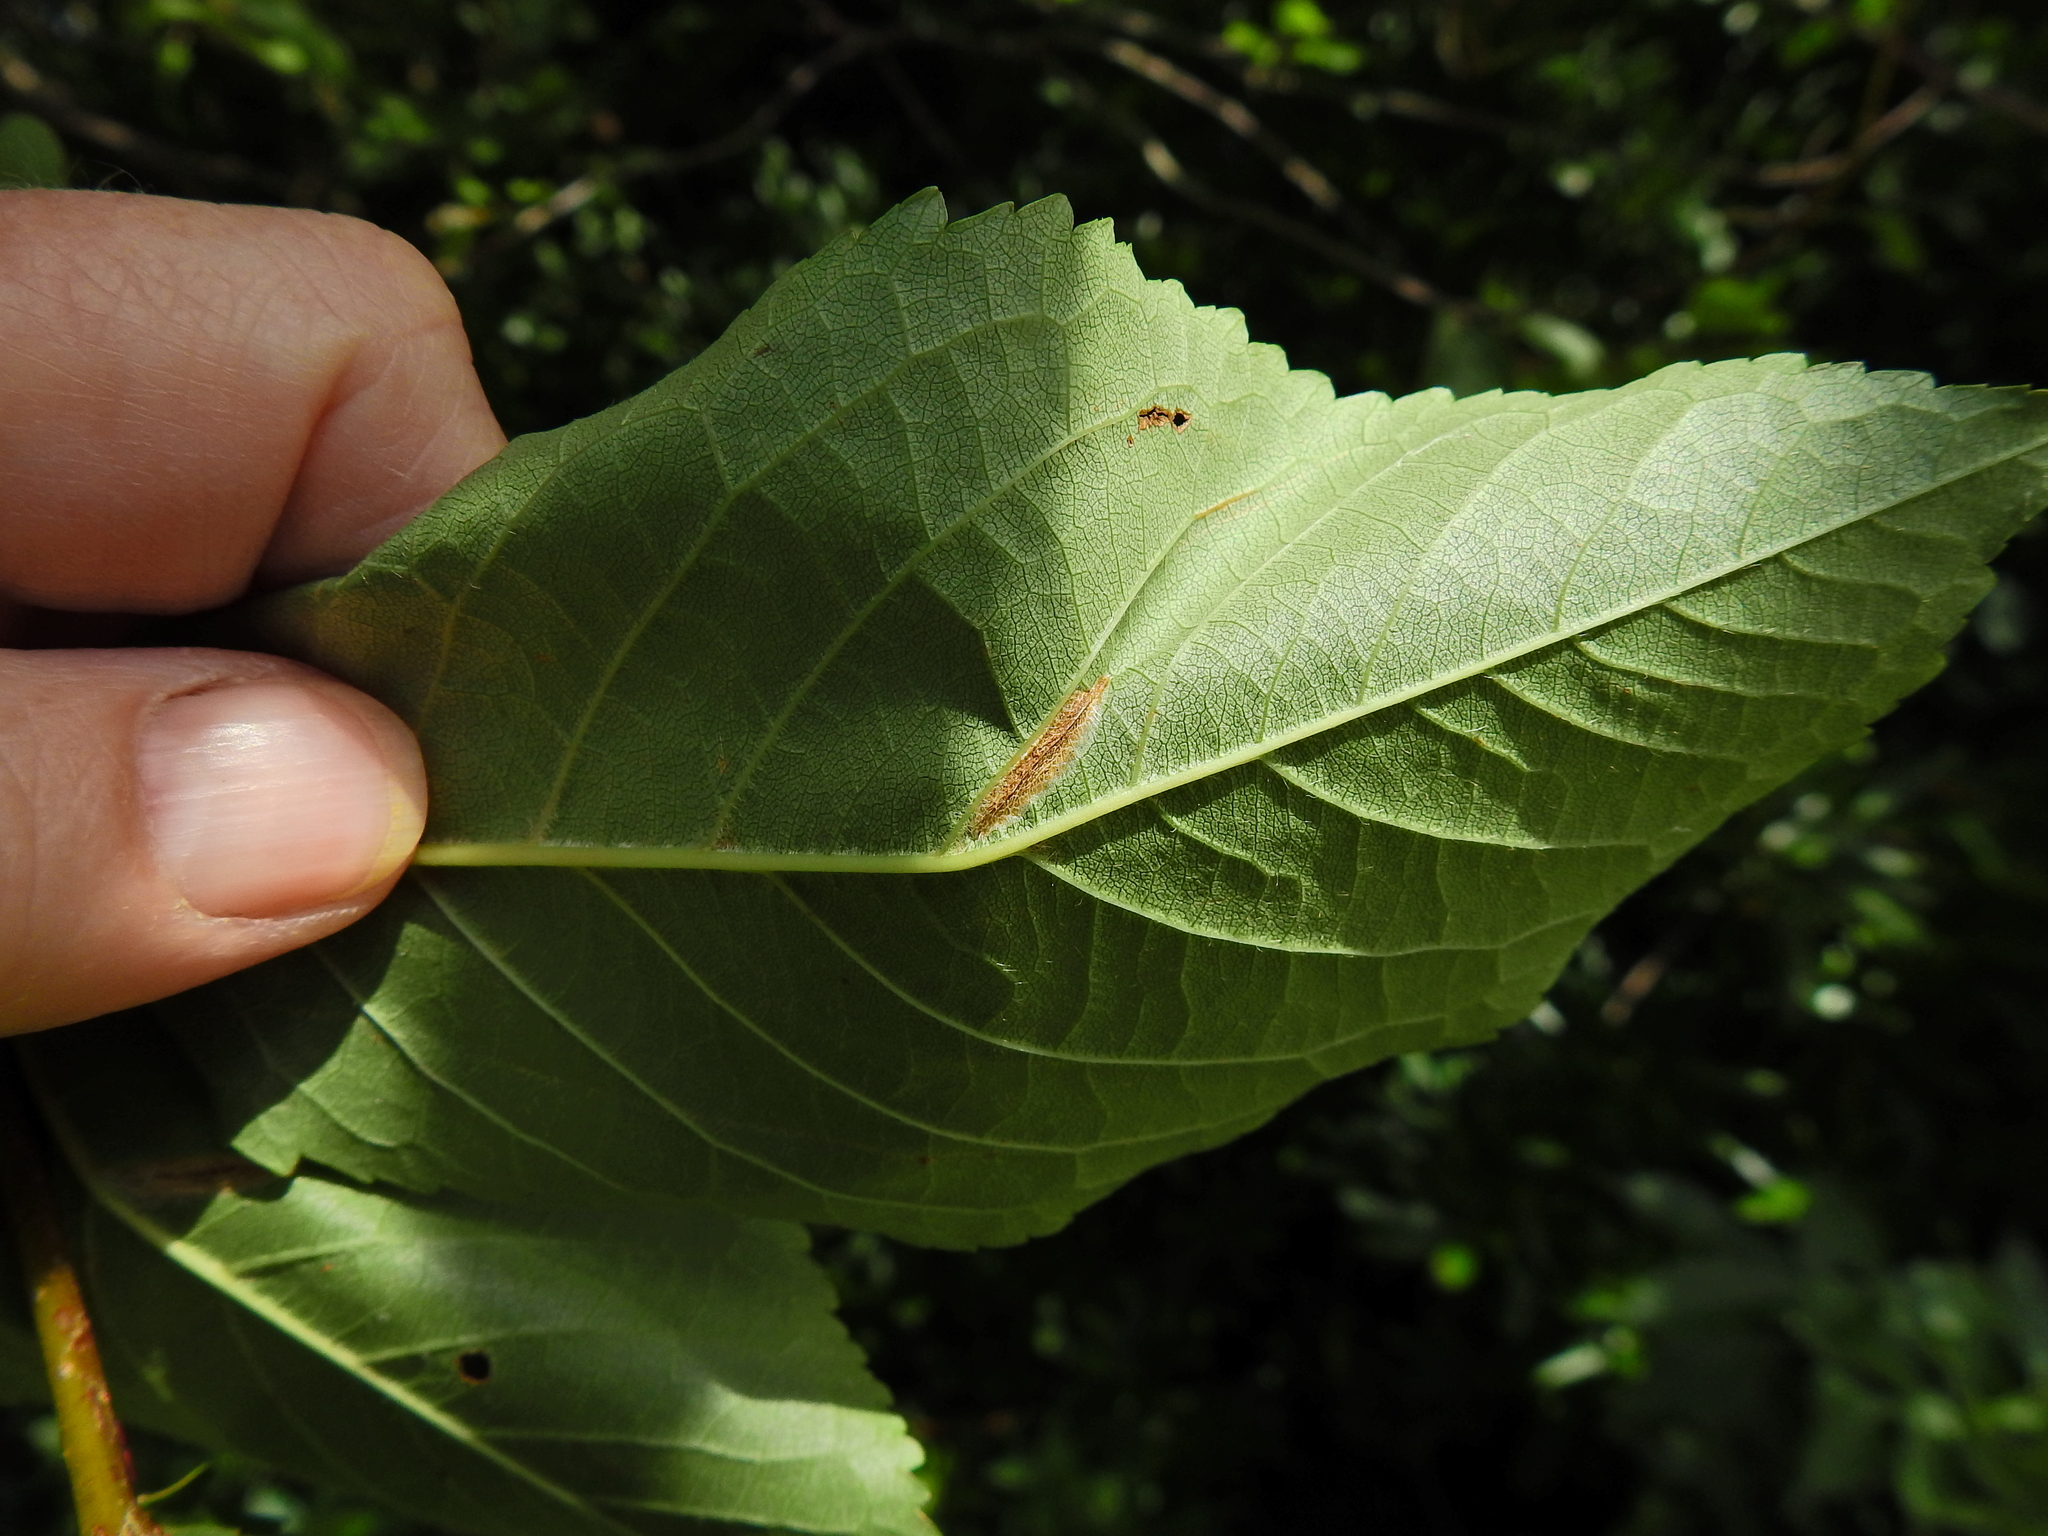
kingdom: Animalia
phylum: Arthropoda
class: Insecta
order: Lepidoptera
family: Gracillariidae
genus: Phyllonorycter
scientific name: Phyllonorycter cerasicolella
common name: Cherry midget
